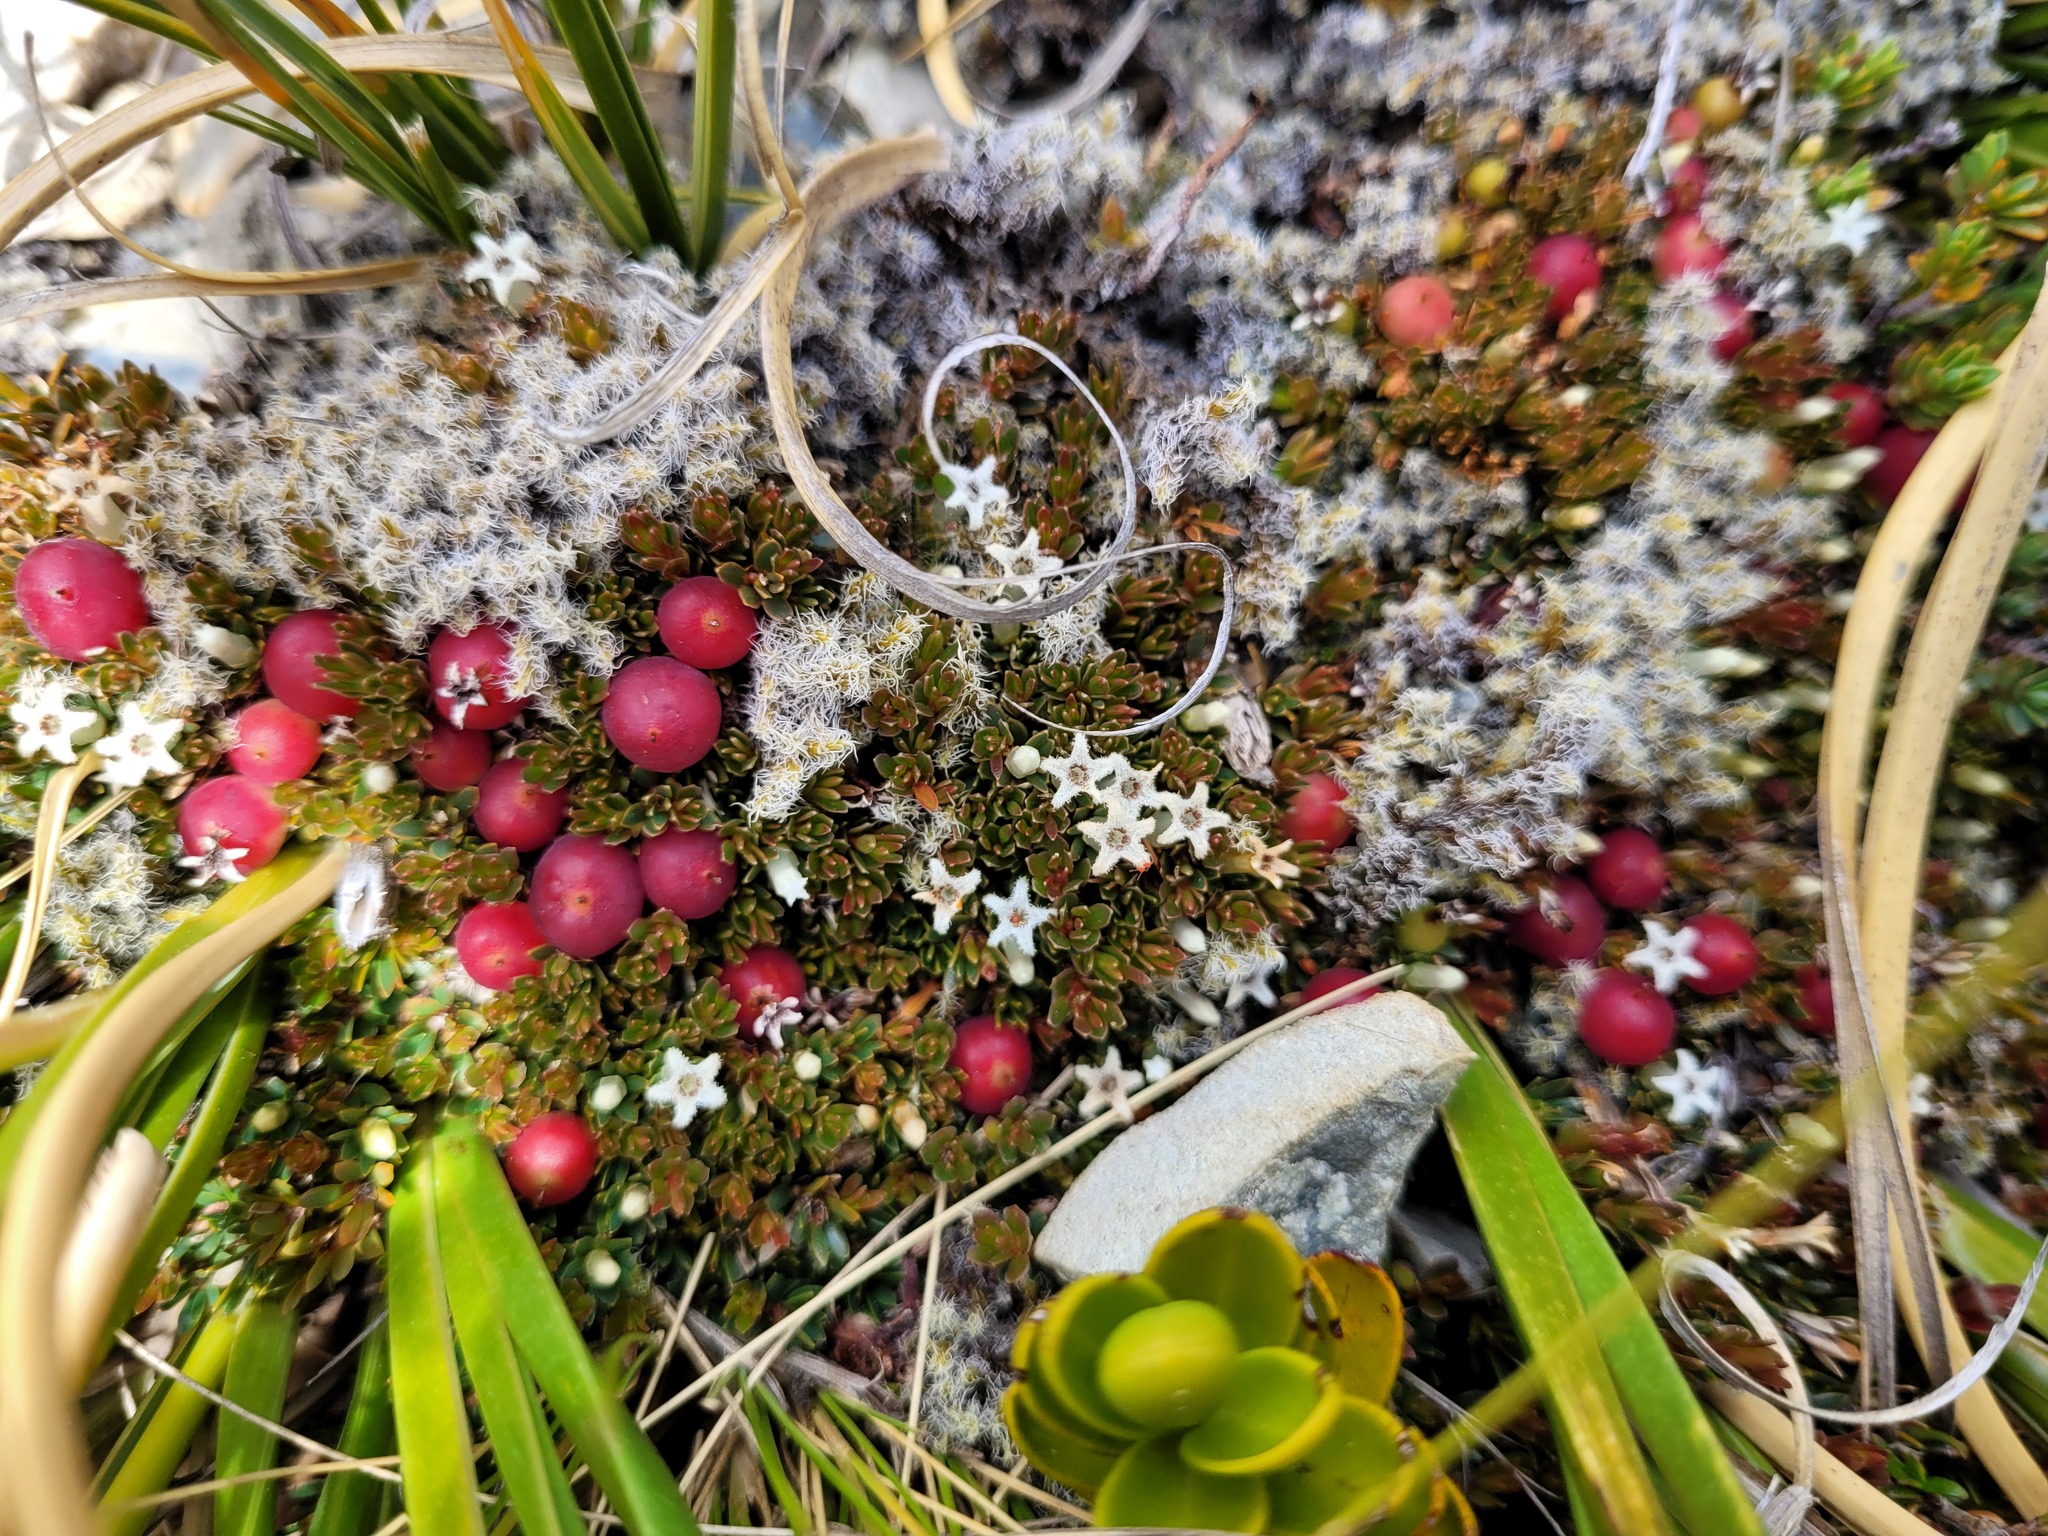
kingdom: Plantae
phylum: Tracheophyta
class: Magnoliopsida
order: Ericales
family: Ericaceae
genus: Pentachondra
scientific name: Pentachondra pumila
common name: Carpet-heath
